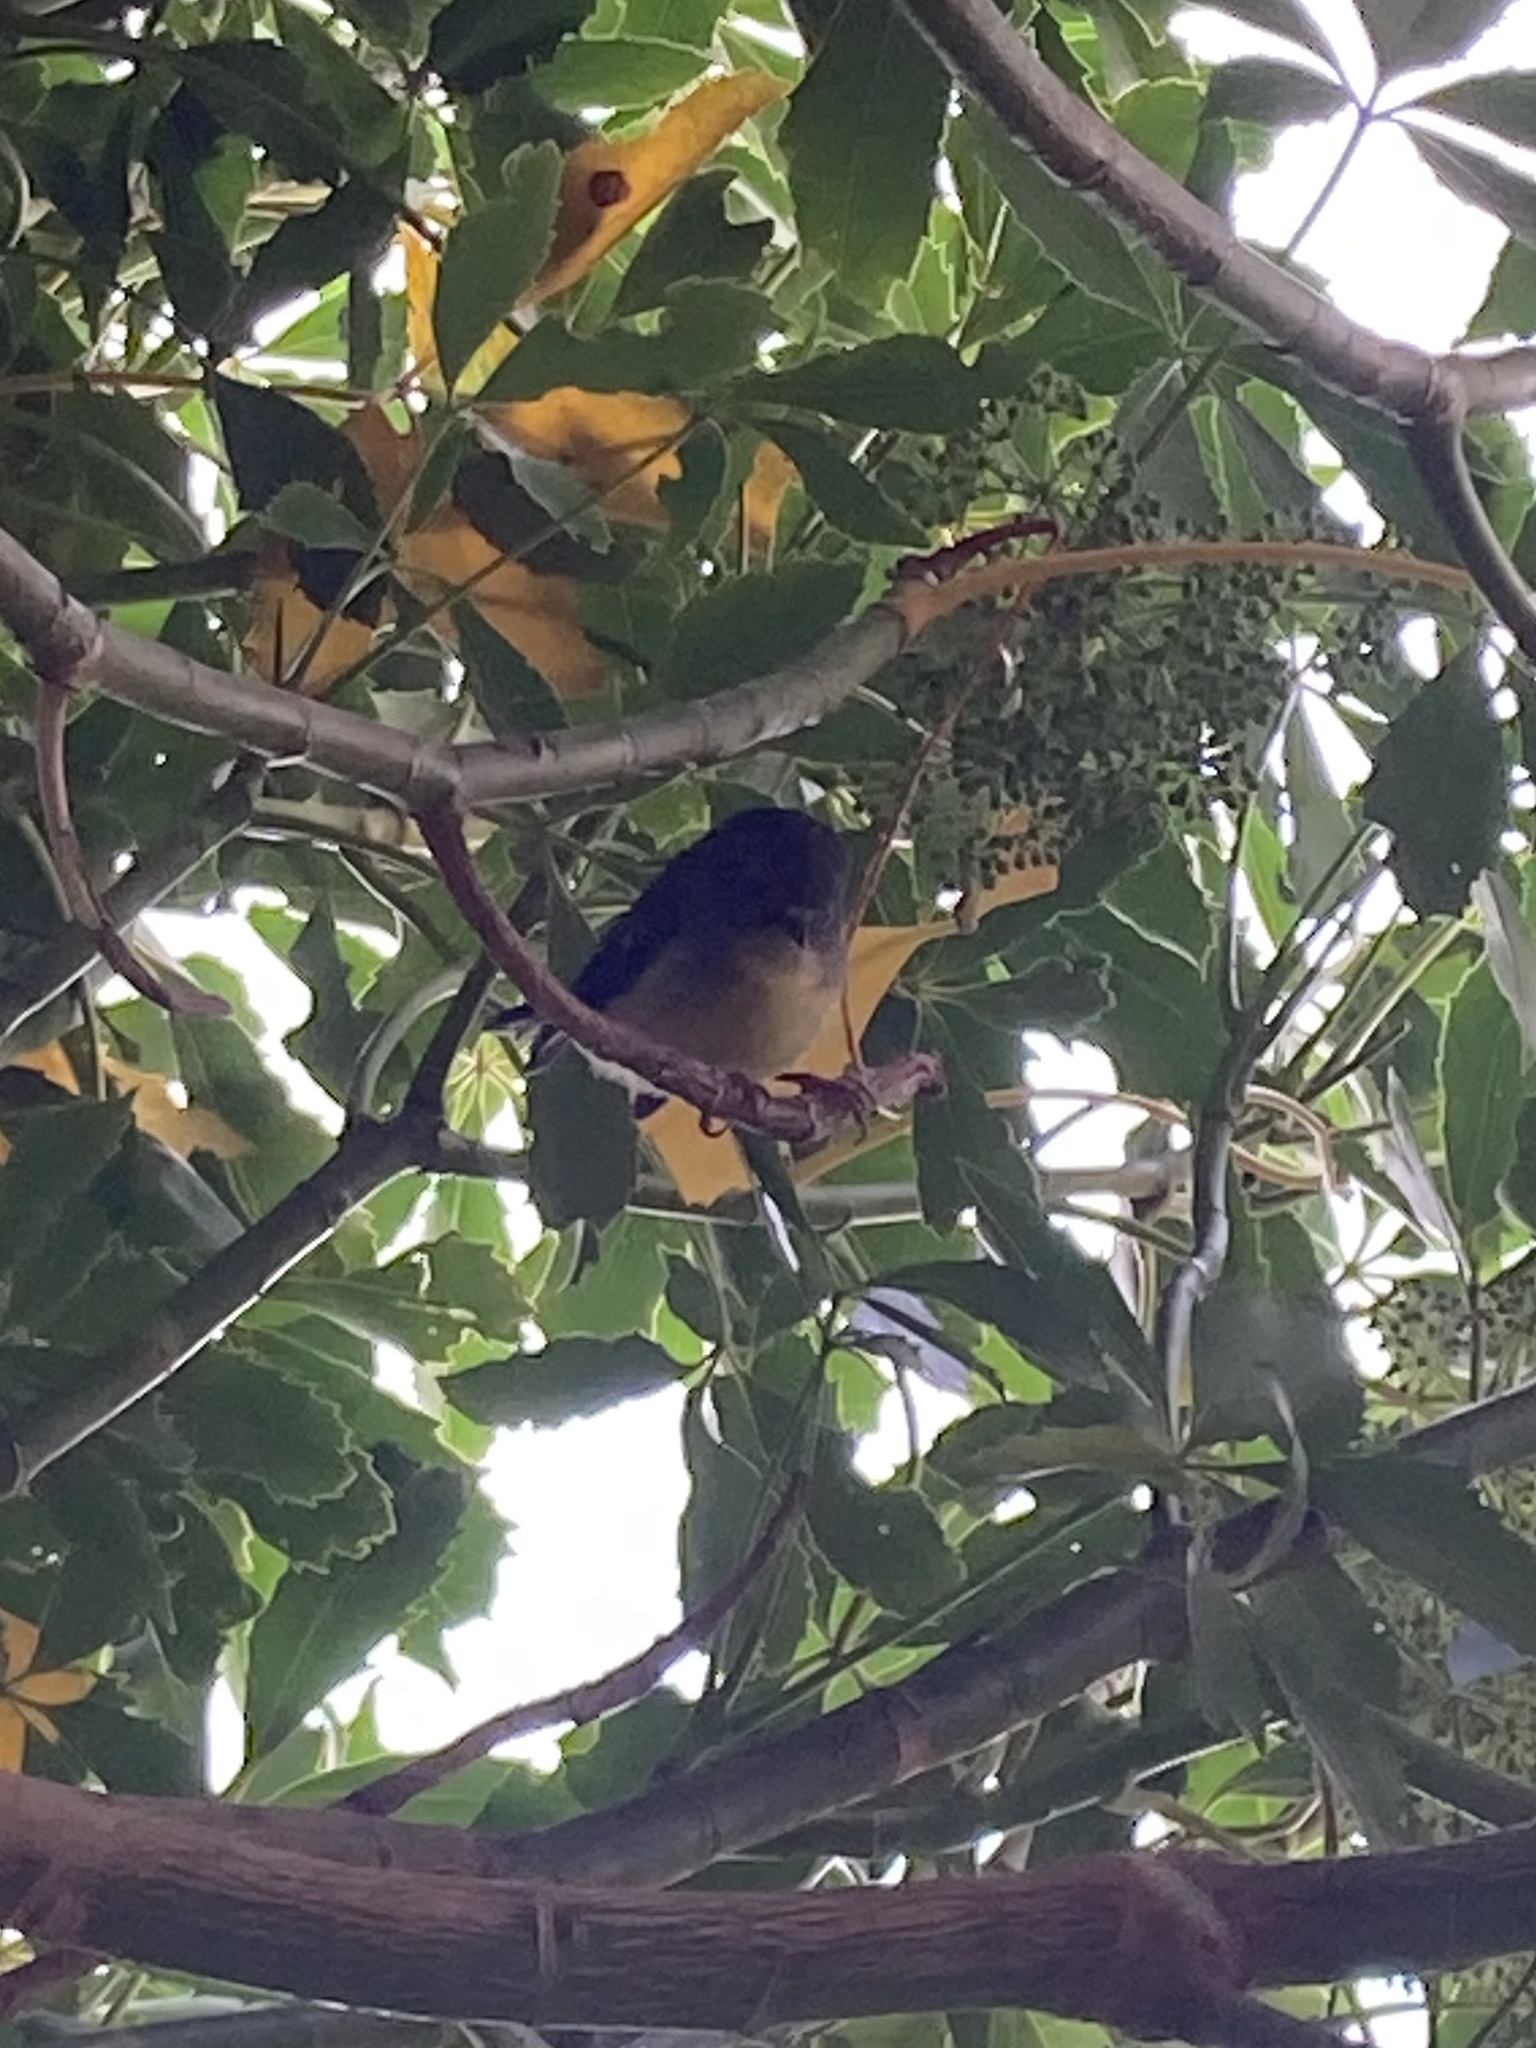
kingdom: Animalia
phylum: Chordata
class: Aves
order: Passeriformes
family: Petroicidae
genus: Petroica
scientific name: Petroica macrocephala
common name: Tomtit
